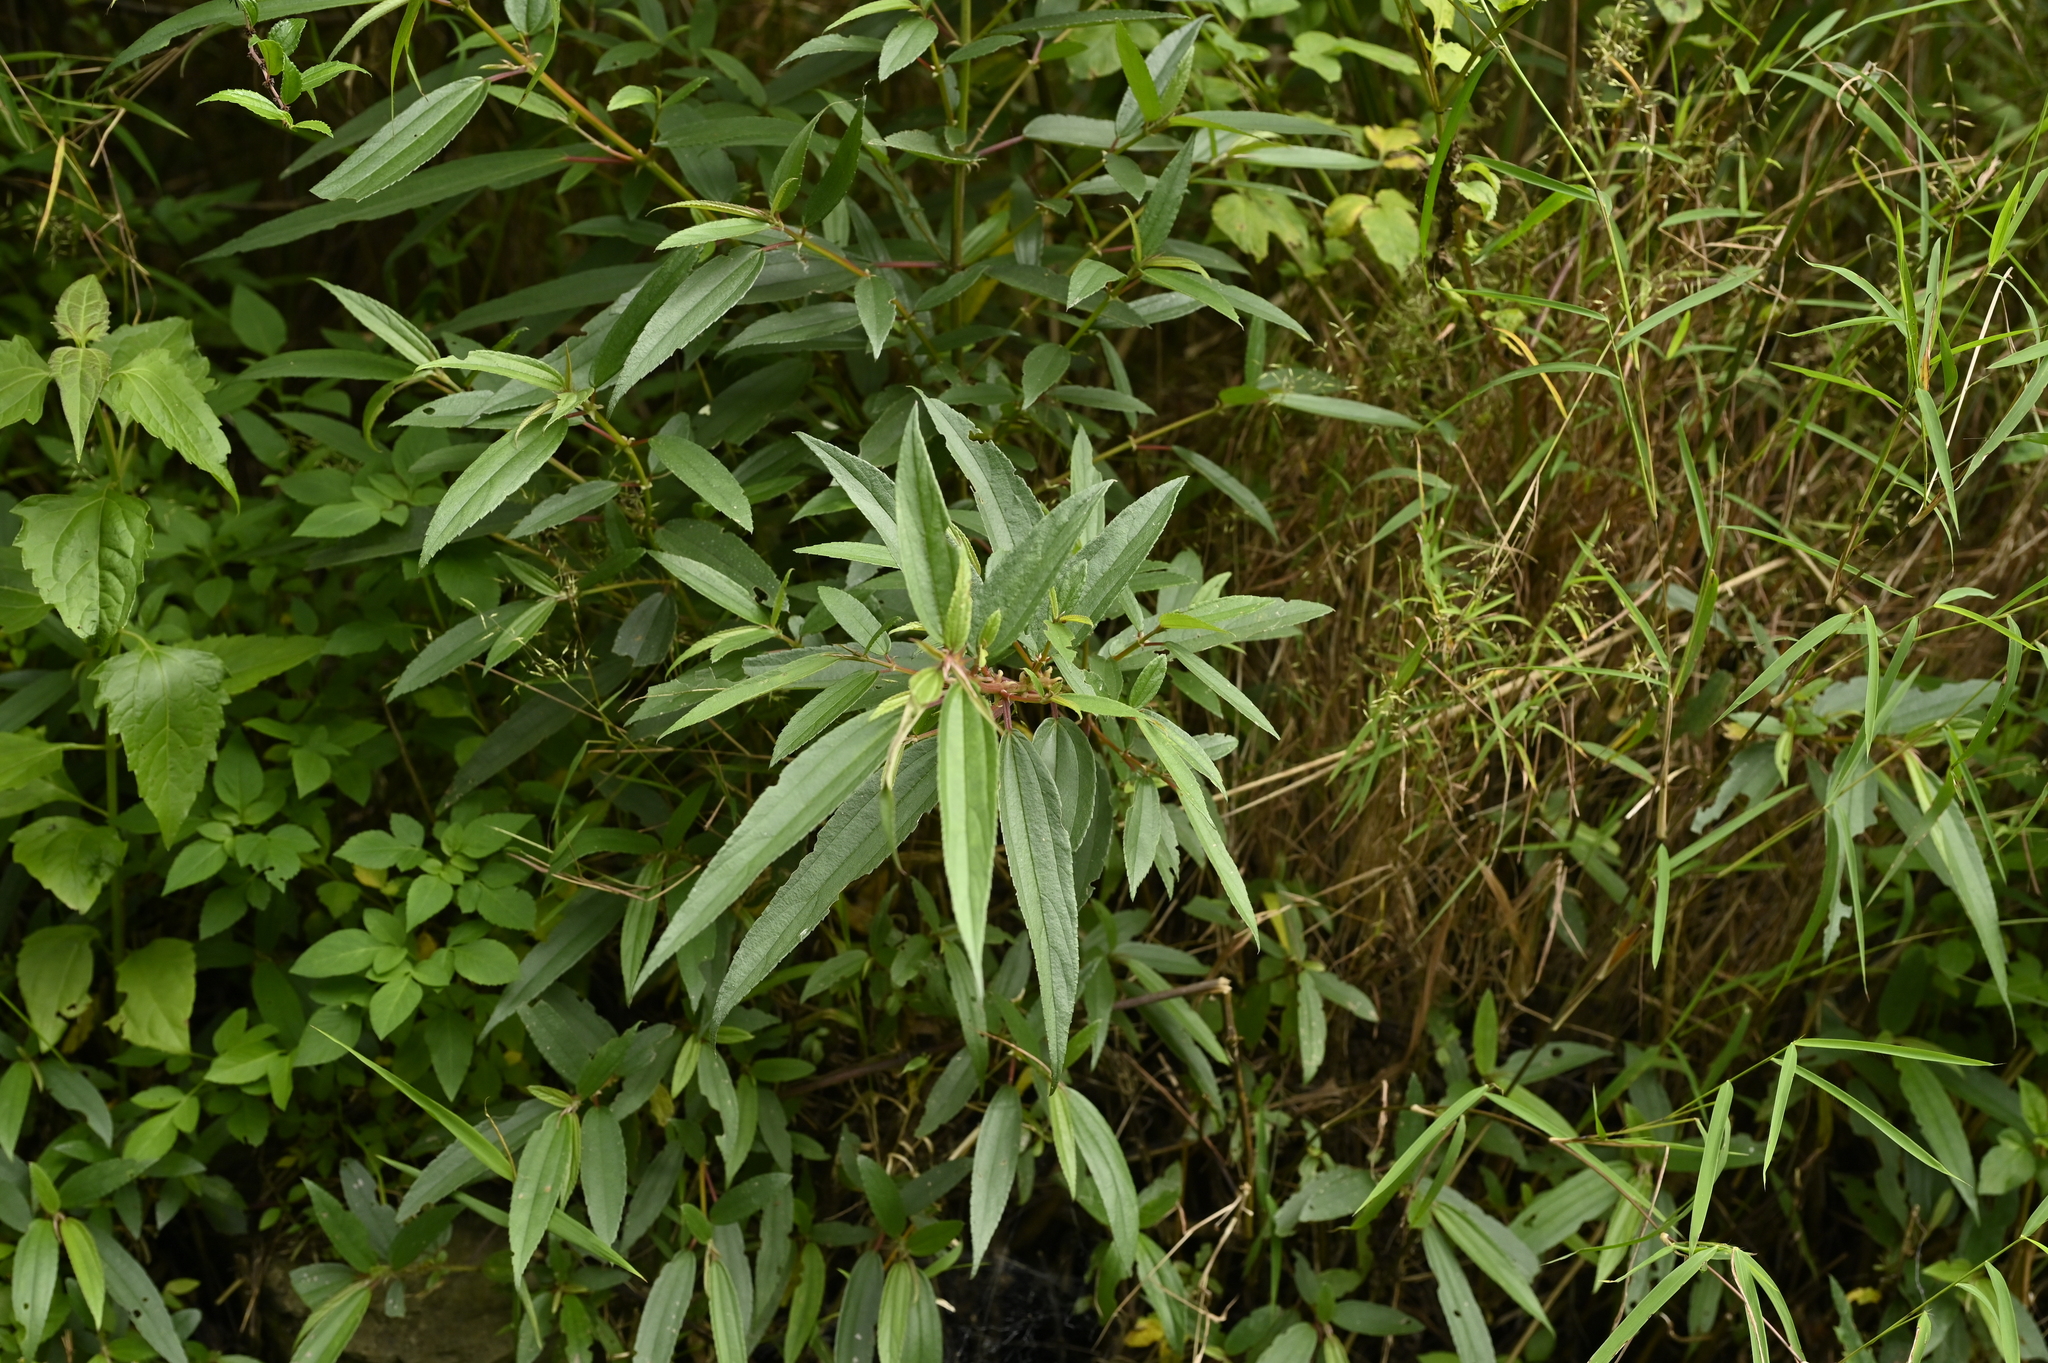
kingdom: Plantae
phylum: Tracheophyta
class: Magnoliopsida
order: Rosales
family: Urticaceae
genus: Boehmeria
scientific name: Boehmeria densiflora
